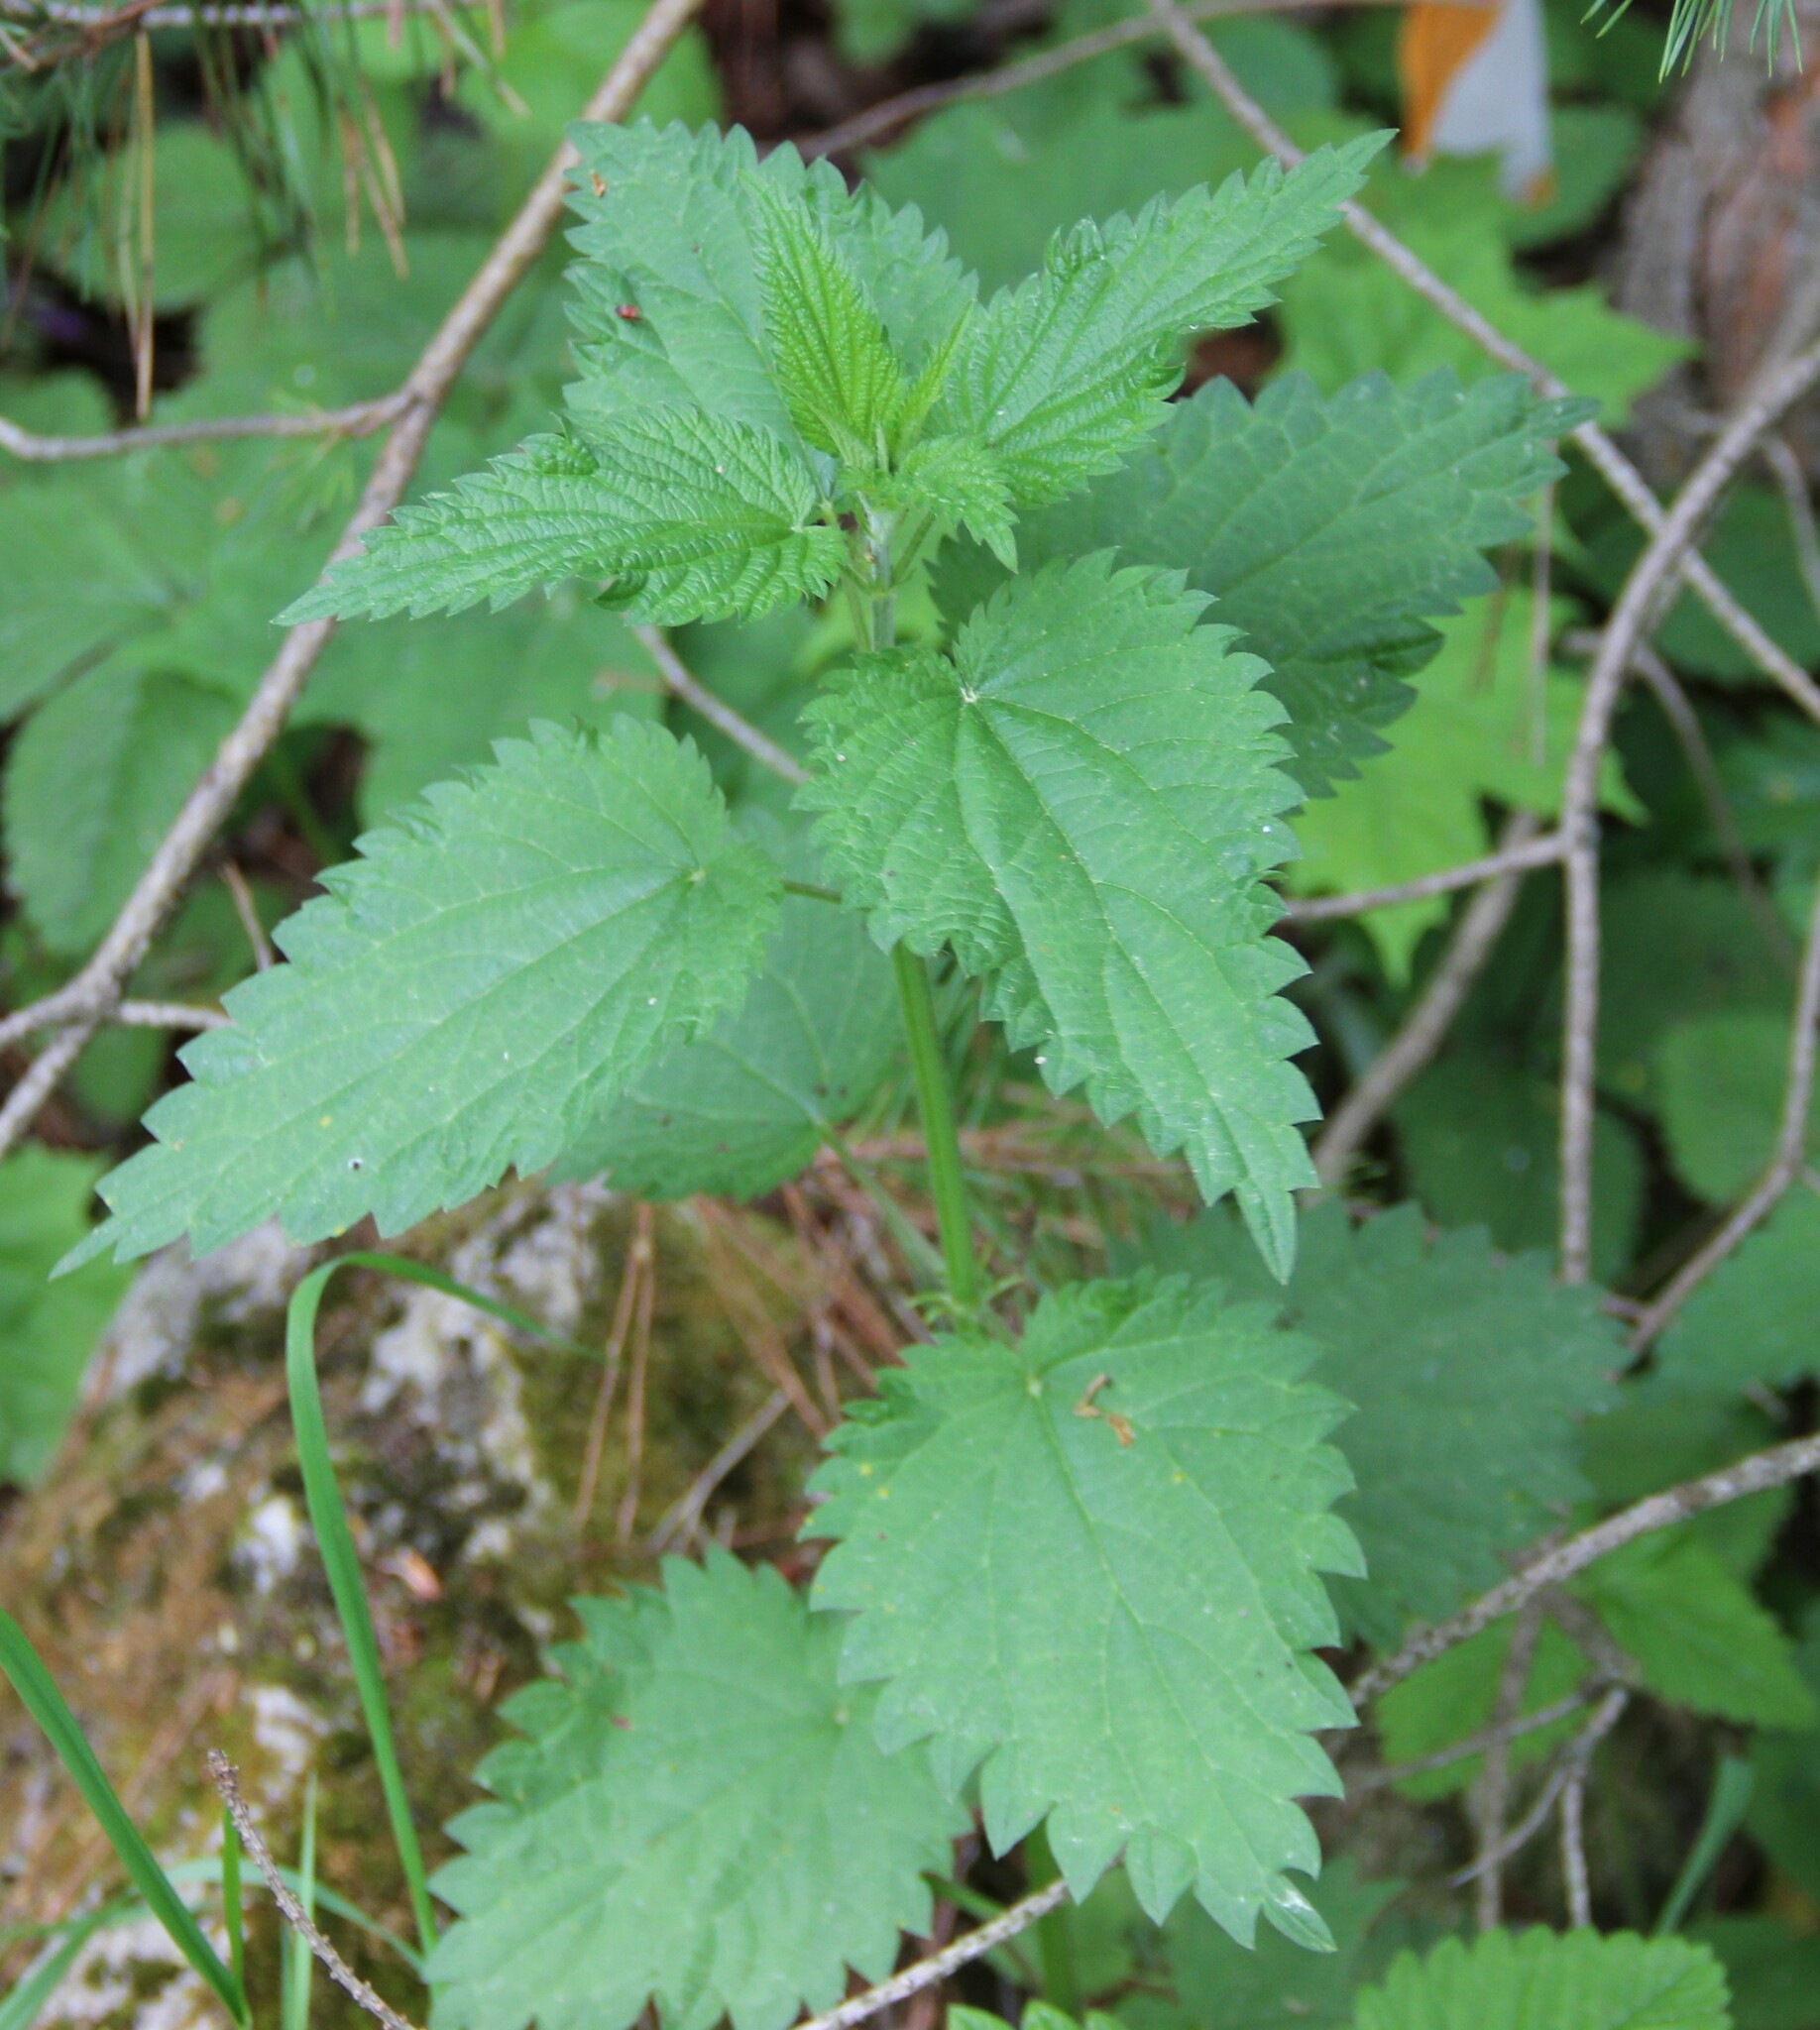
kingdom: Plantae
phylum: Tracheophyta
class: Magnoliopsida
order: Rosales
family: Urticaceae
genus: Urtica
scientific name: Urtica dioica
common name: Common nettle
